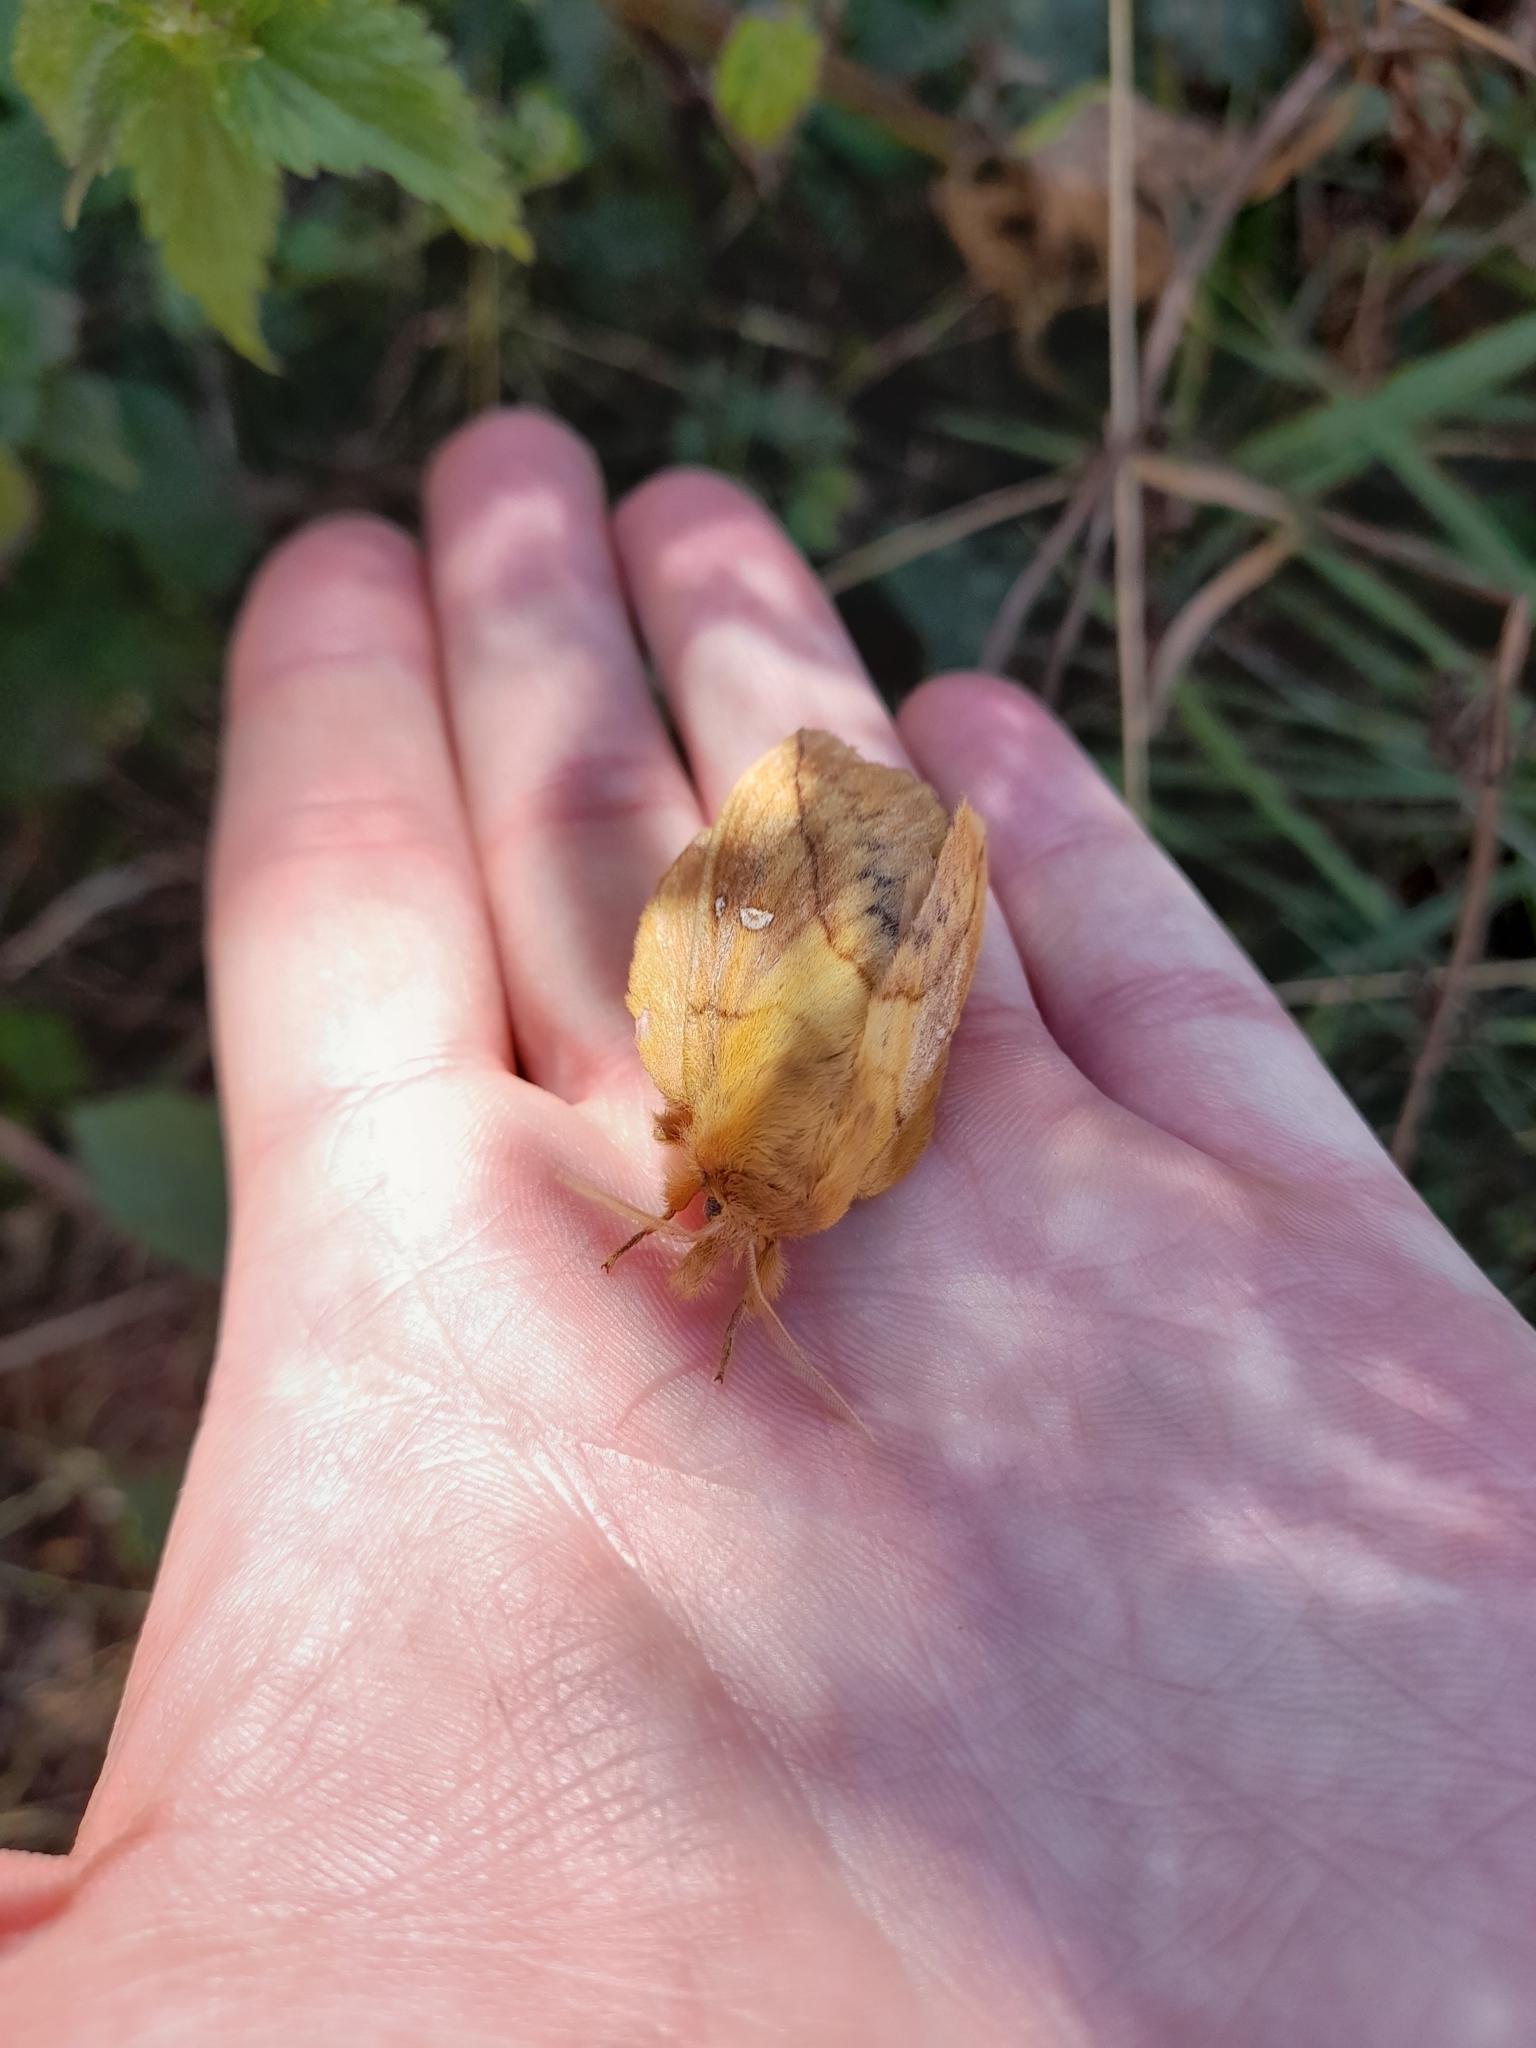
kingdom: Animalia
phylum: Arthropoda
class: Insecta
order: Lepidoptera
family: Lasiocampidae
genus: Euthrix
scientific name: Euthrix potatoria
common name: Drinker
